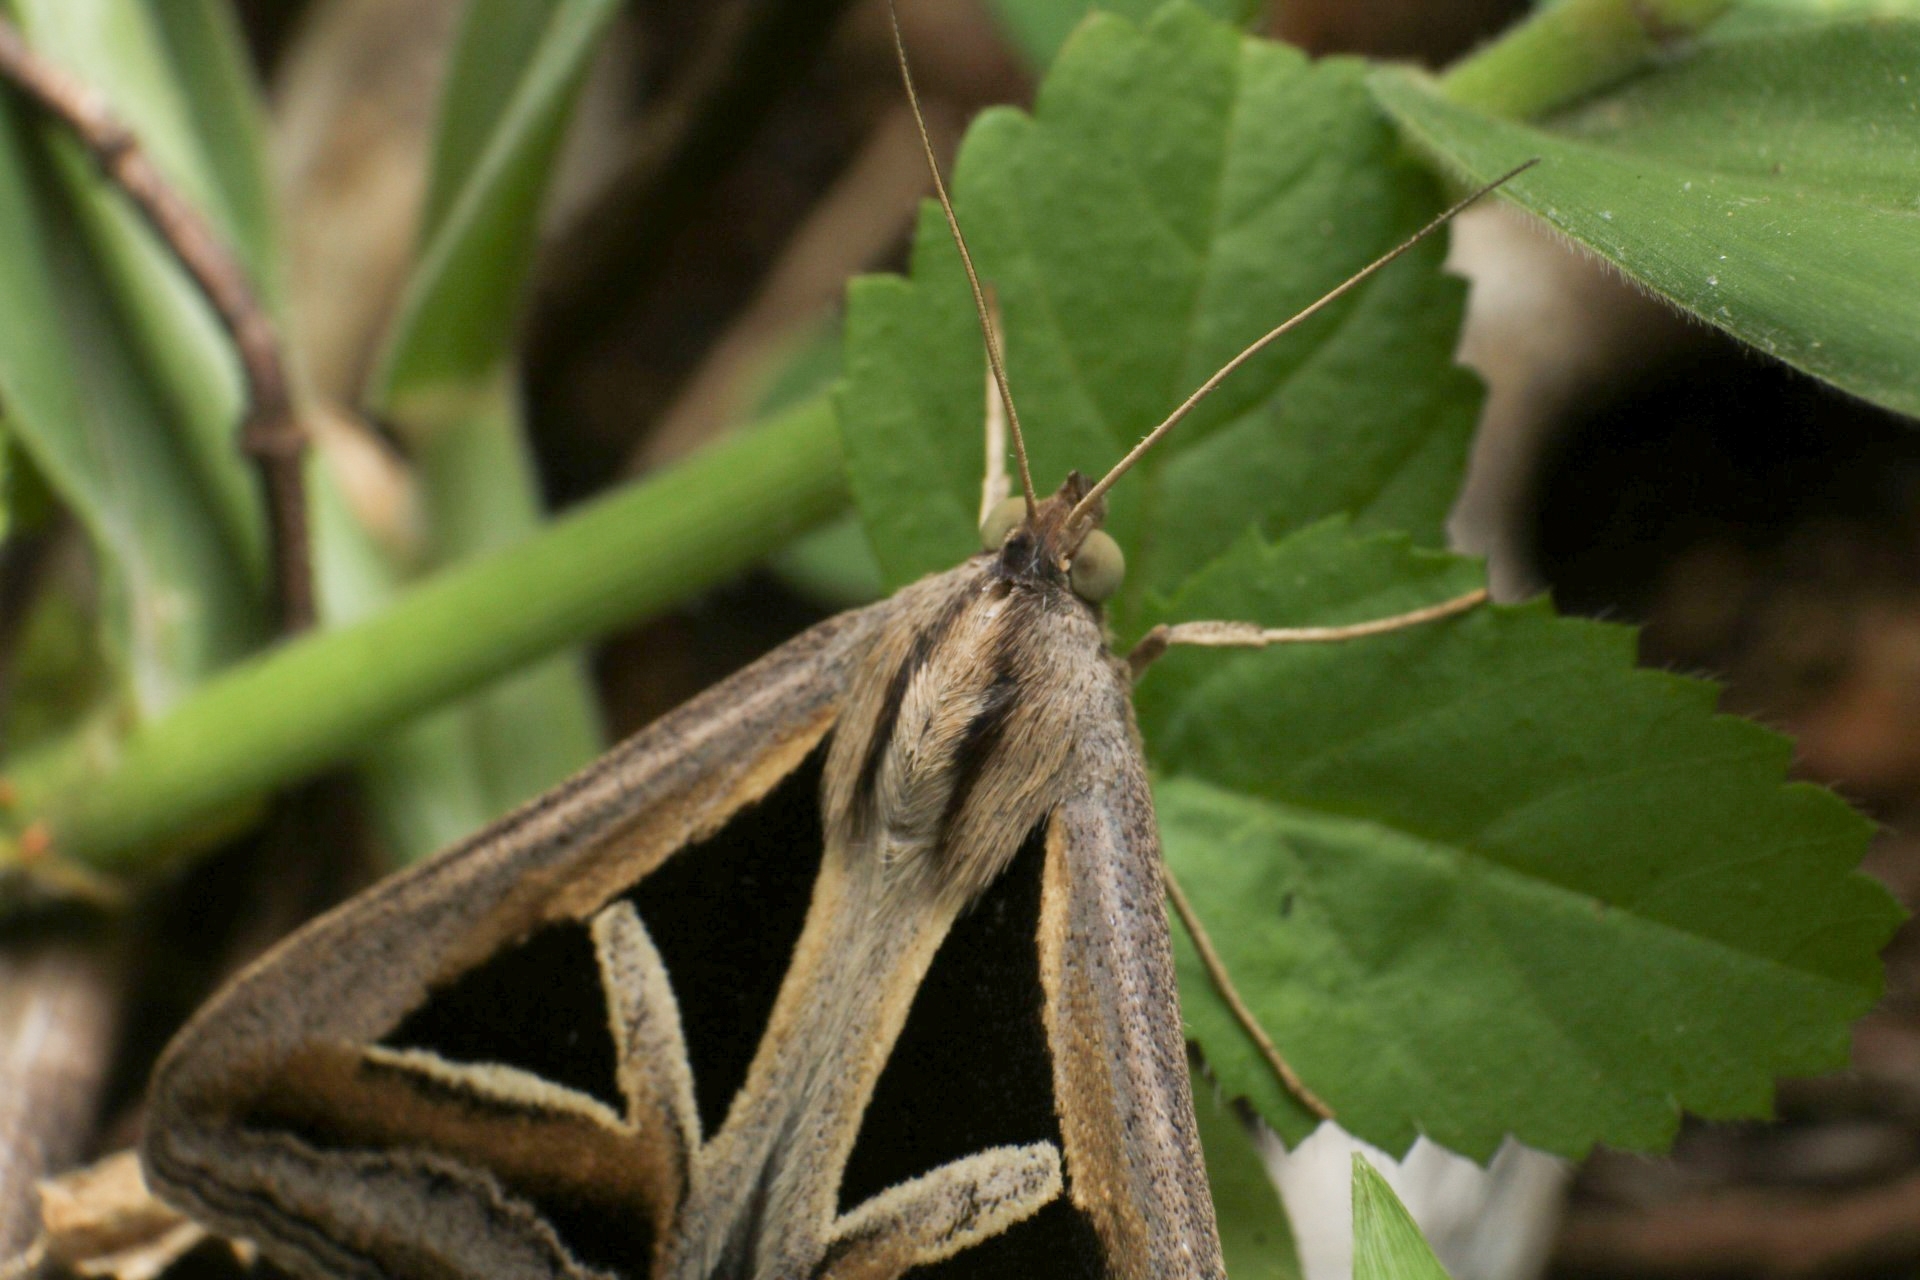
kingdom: Animalia
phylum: Arthropoda
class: Insecta
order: Lepidoptera
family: Erebidae
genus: Trigonodes
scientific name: Trigonodes hyppasia
